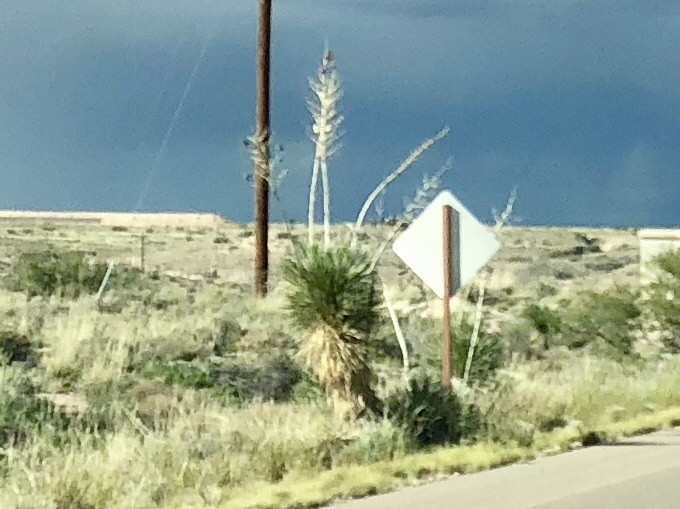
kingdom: Plantae
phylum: Tracheophyta
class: Liliopsida
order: Asparagales
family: Asparagaceae
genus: Yucca
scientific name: Yucca elata
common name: Palmella
